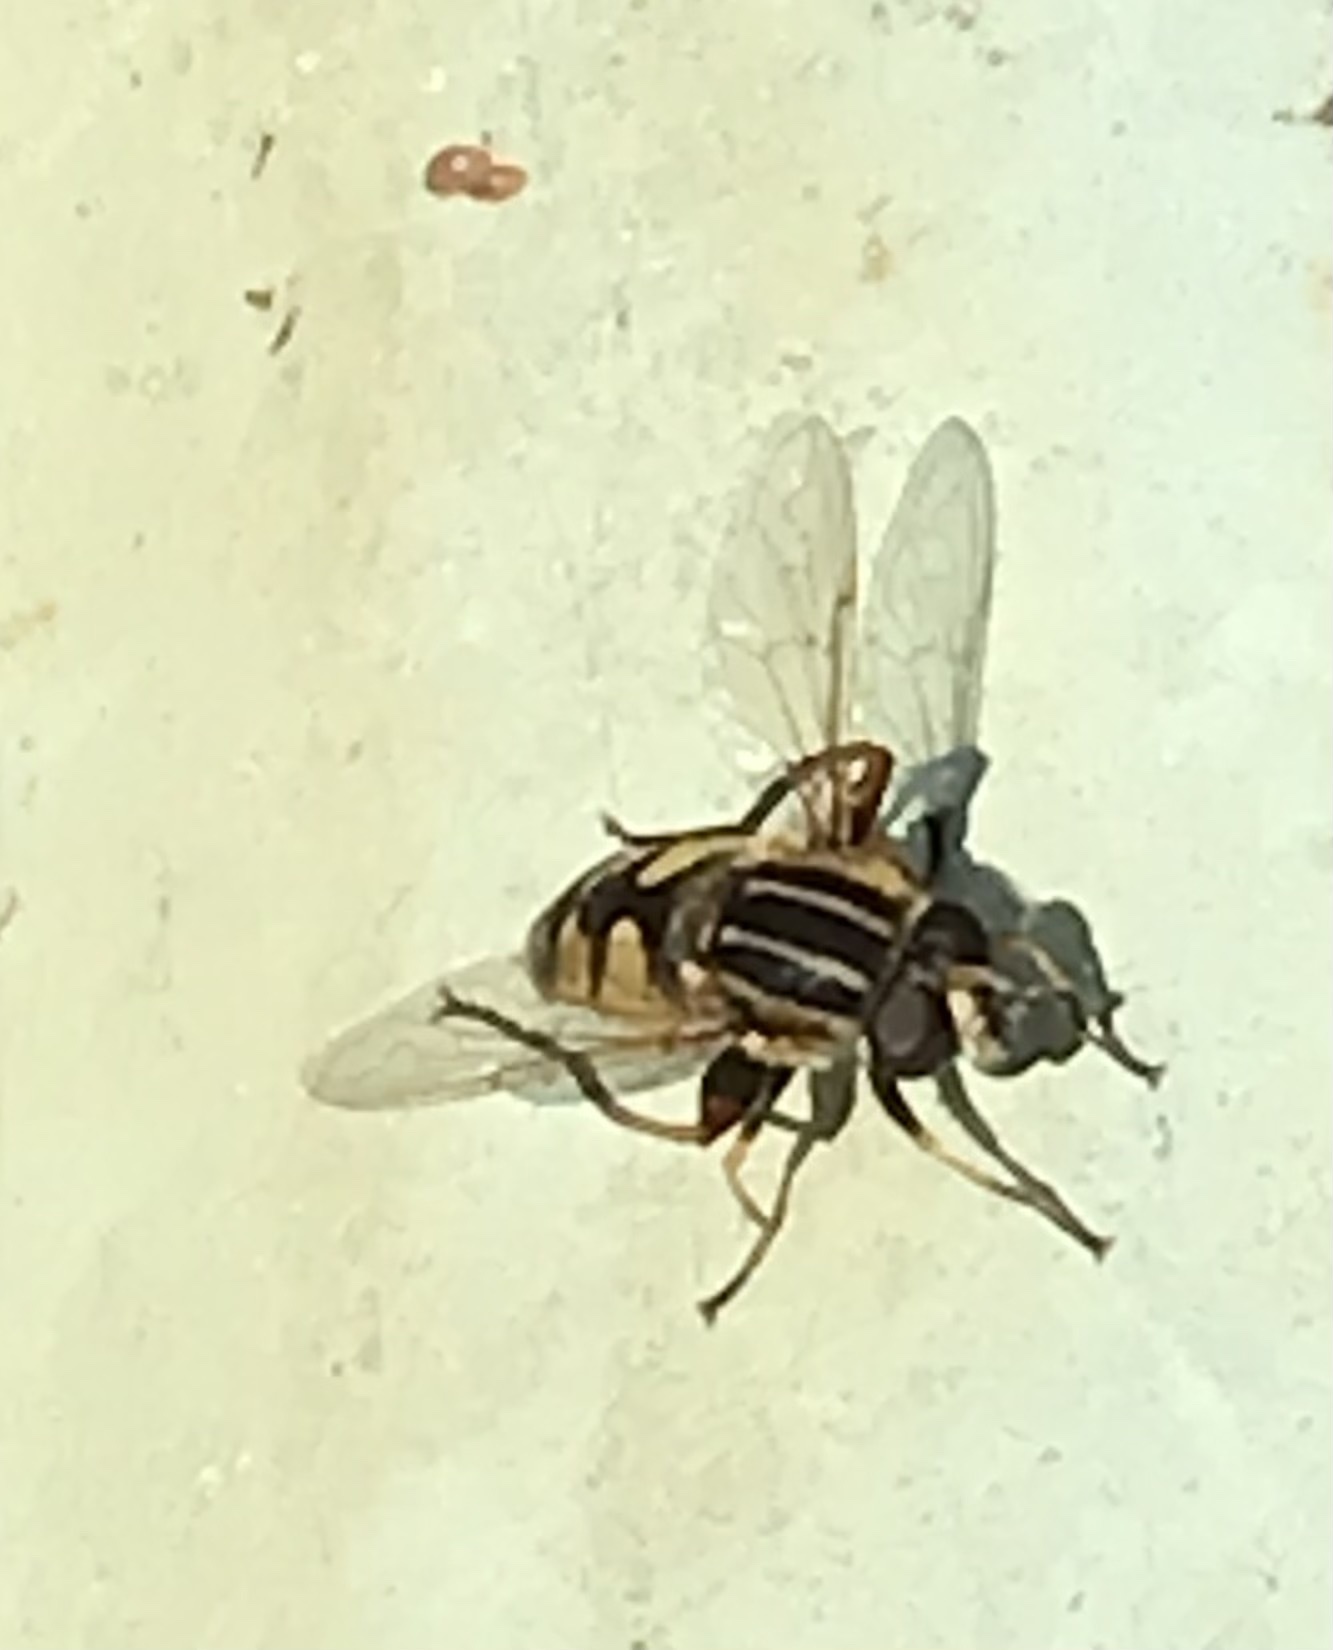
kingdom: Animalia
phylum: Arthropoda
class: Insecta
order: Diptera
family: Syrphidae
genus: Helophilus
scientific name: Helophilus pendulus
